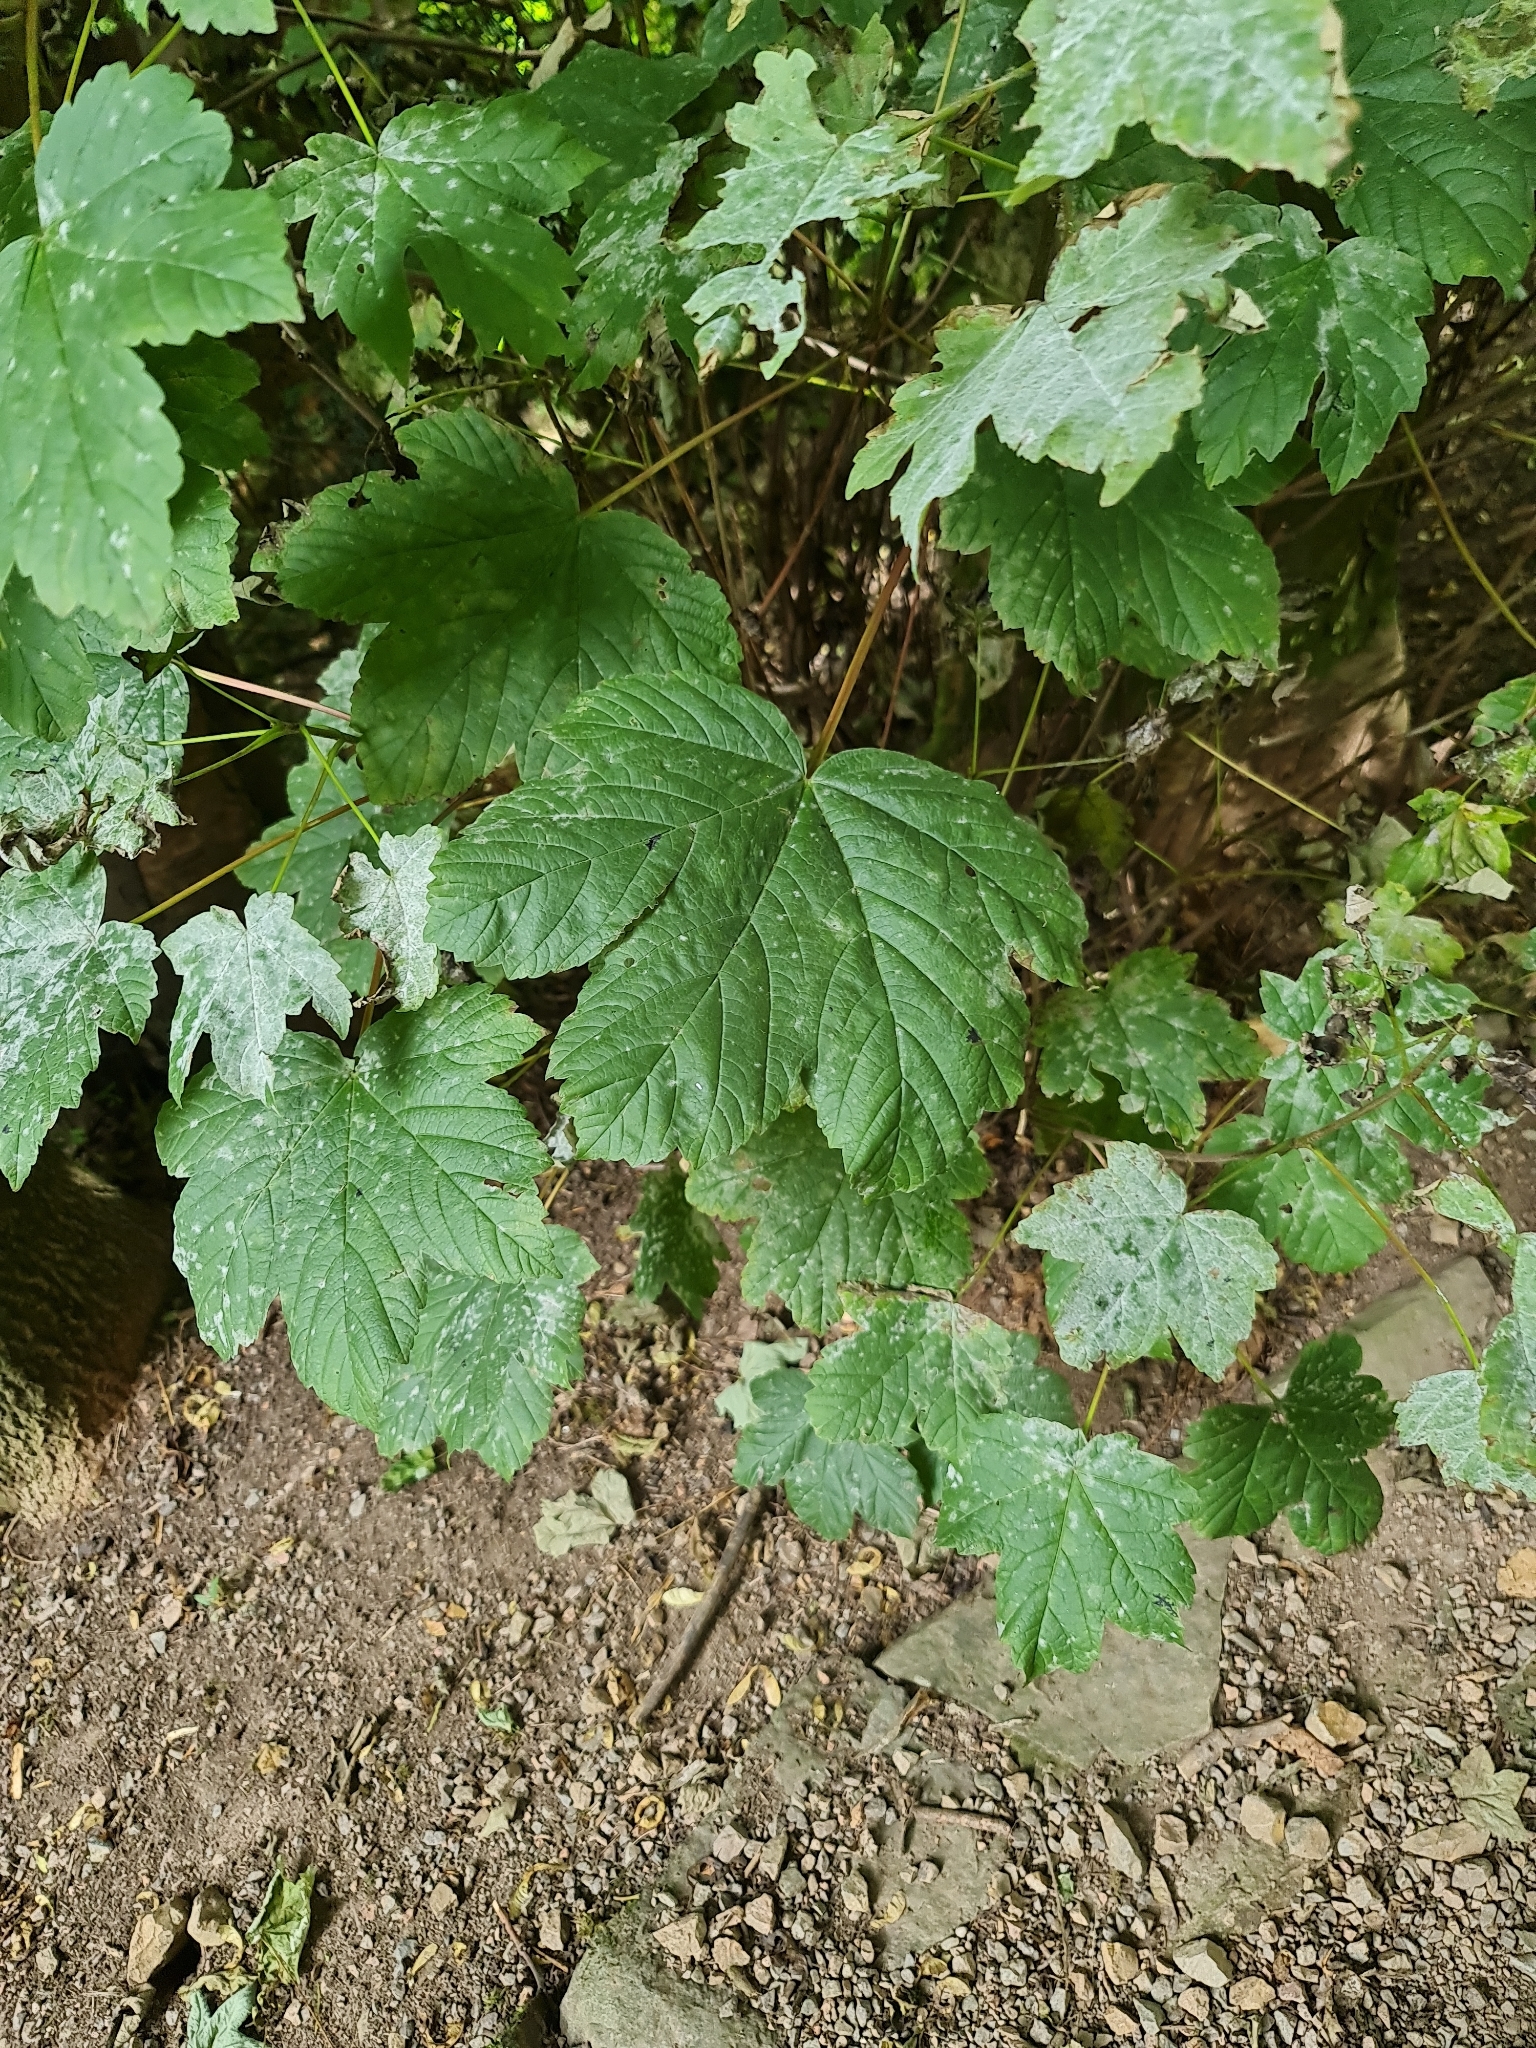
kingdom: Plantae
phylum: Tracheophyta
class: Magnoliopsida
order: Sapindales
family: Sapindaceae
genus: Acer
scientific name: Acer pseudoplatanus
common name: Sycamore
